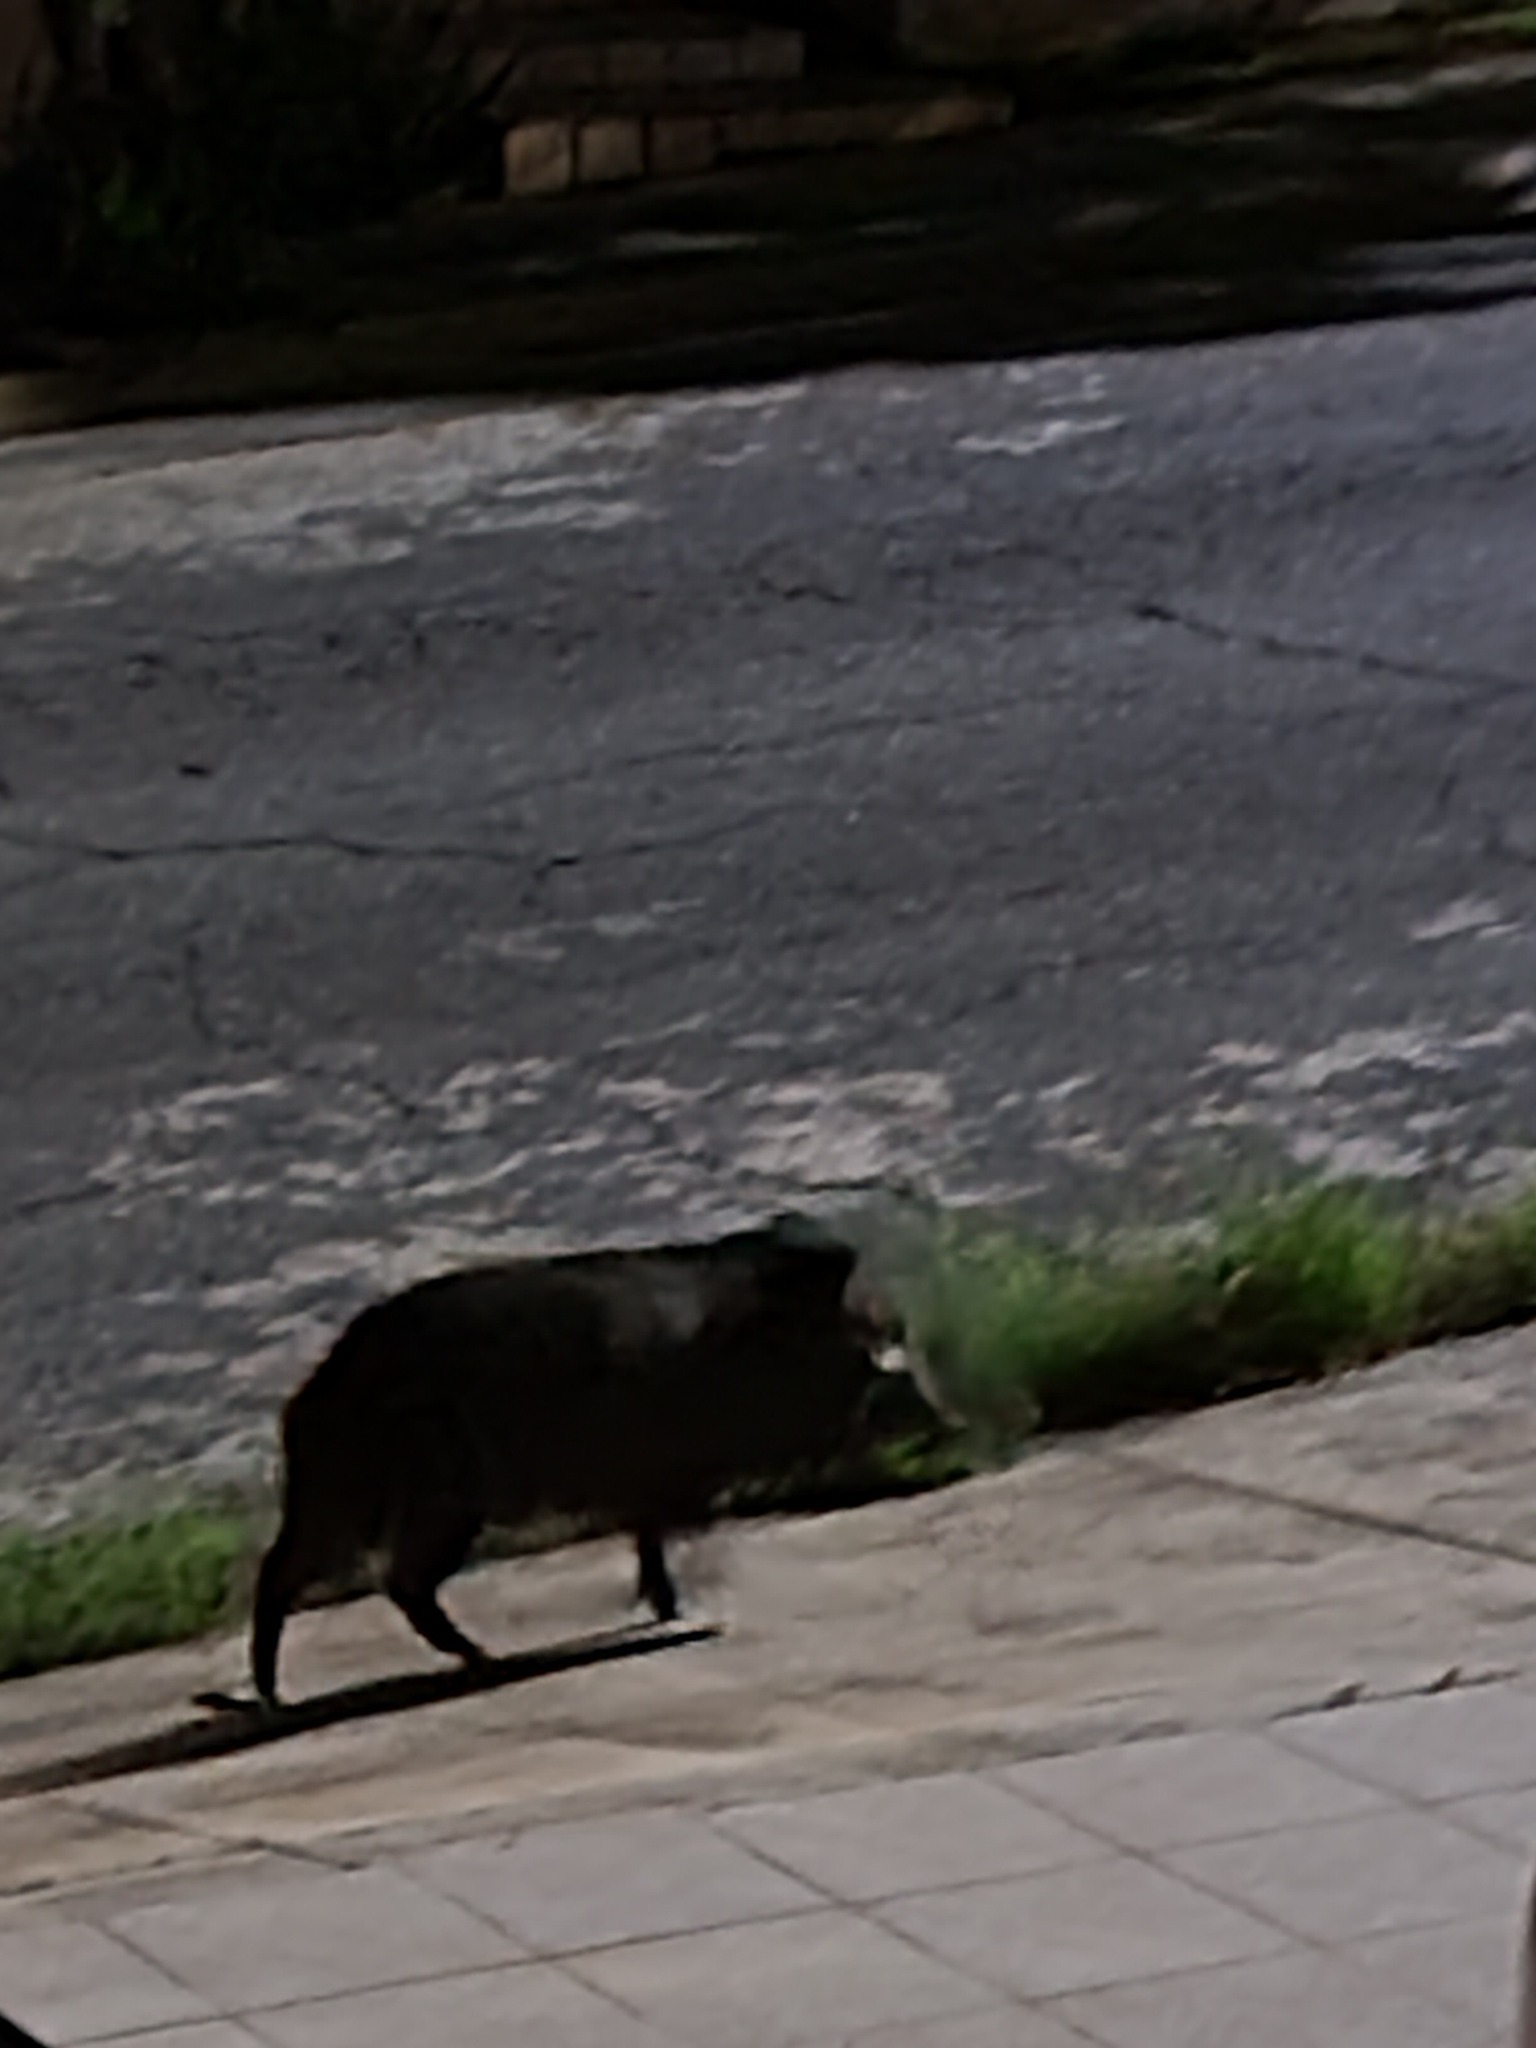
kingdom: Animalia
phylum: Chordata
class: Mammalia
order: Artiodactyla
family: Tayassuidae
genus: Pecari
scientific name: Pecari tajacu
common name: Collared peccary
